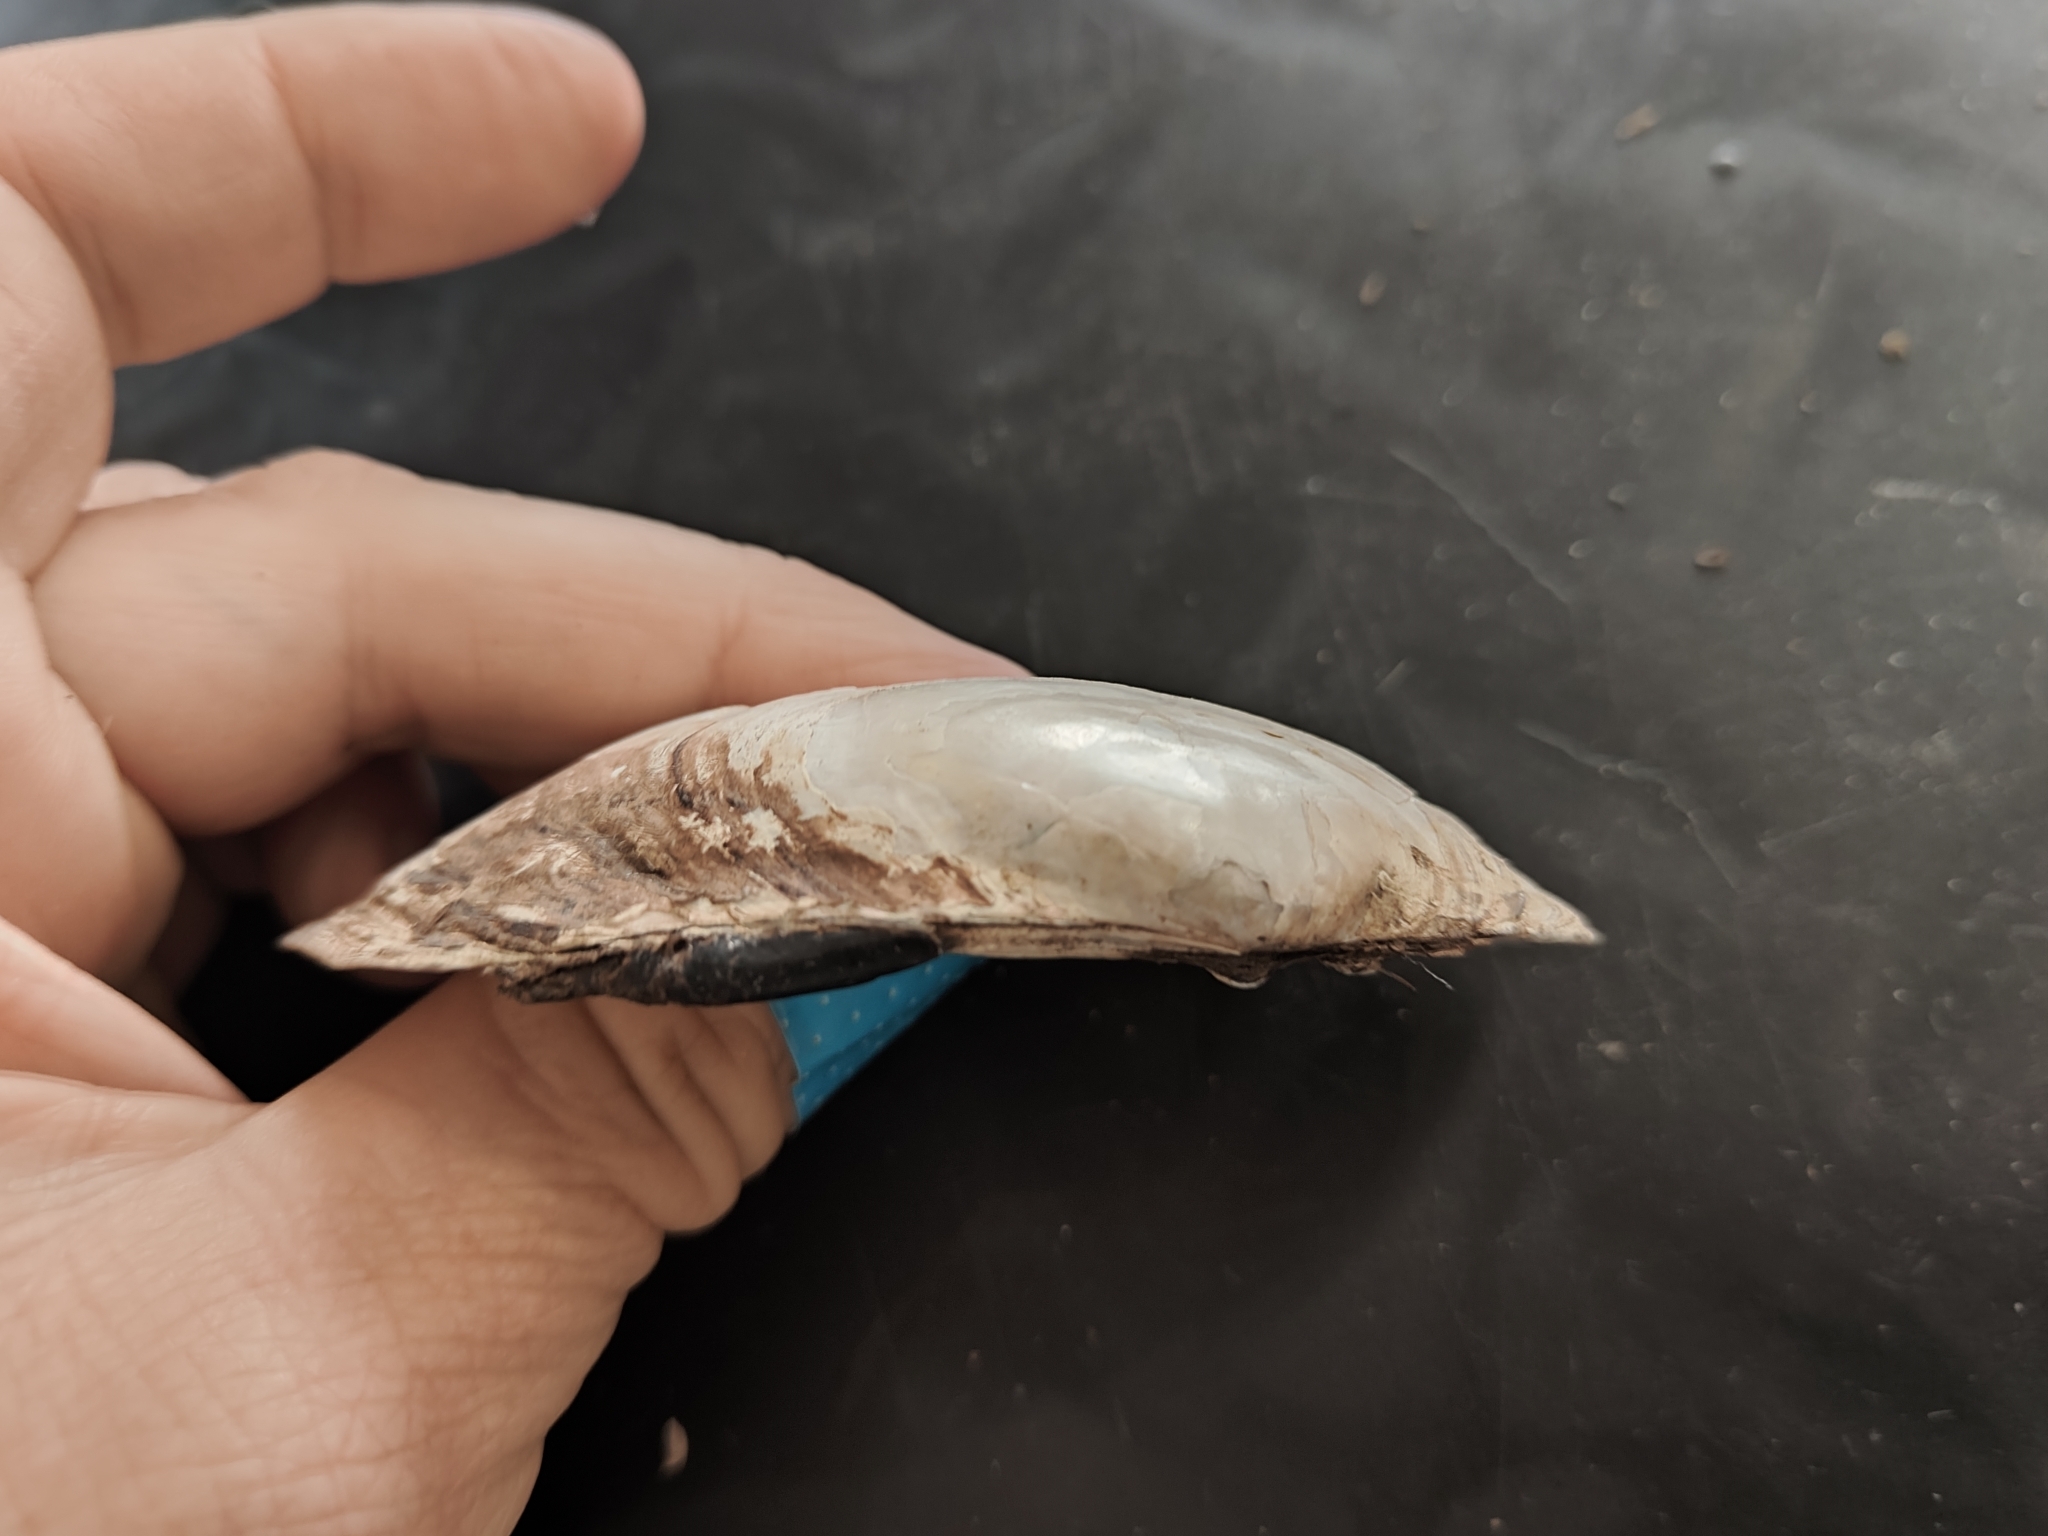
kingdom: Animalia
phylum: Mollusca
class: Bivalvia
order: Unionida
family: Unionidae
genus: Lampsilis
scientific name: Lampsilis siliquoidea
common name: Fatmucket
